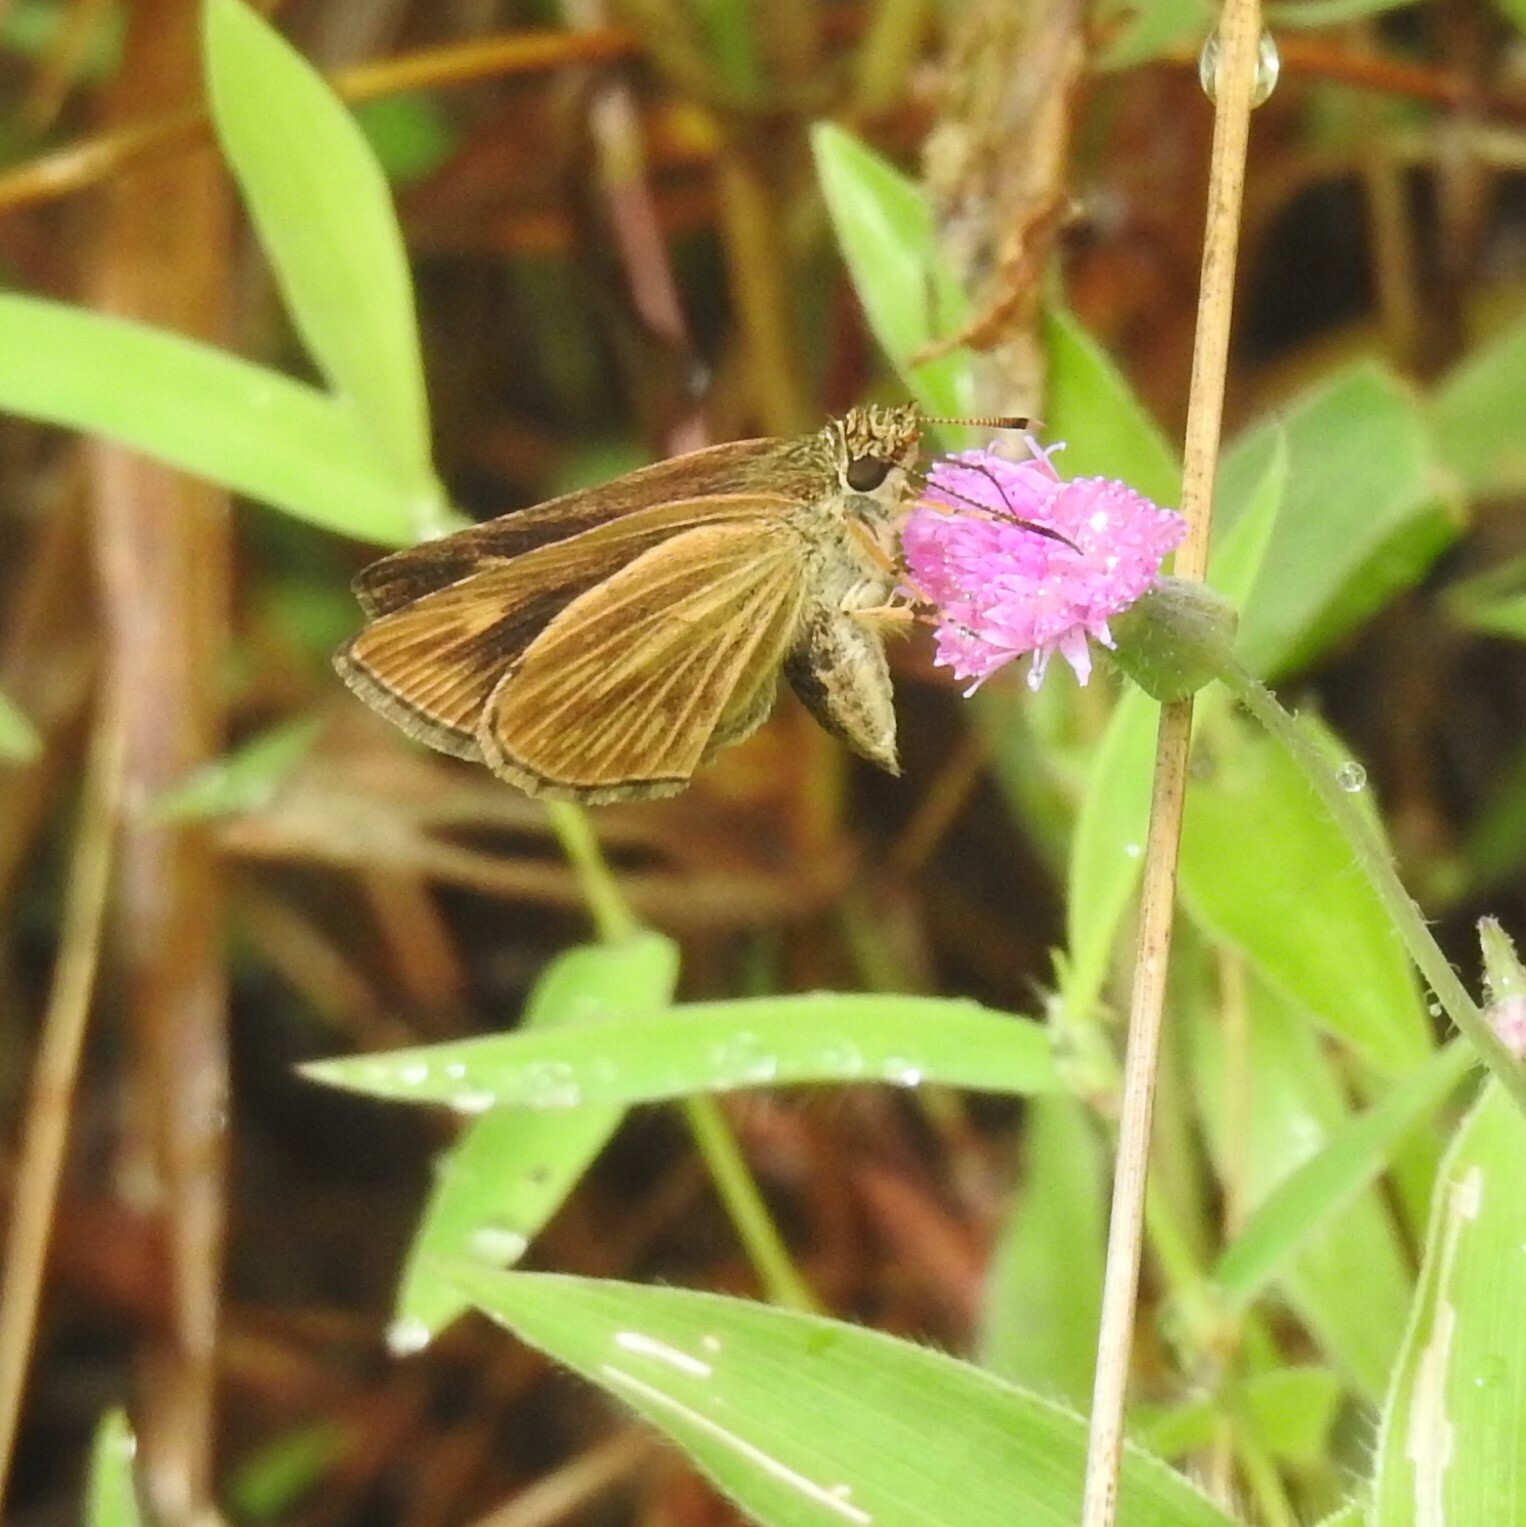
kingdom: Animalia
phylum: Arthropoda
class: Insecta
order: Lepidoptera
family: Hesperiidae
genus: Baracus
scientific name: Baracus vittatus
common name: Hedge-hopper
